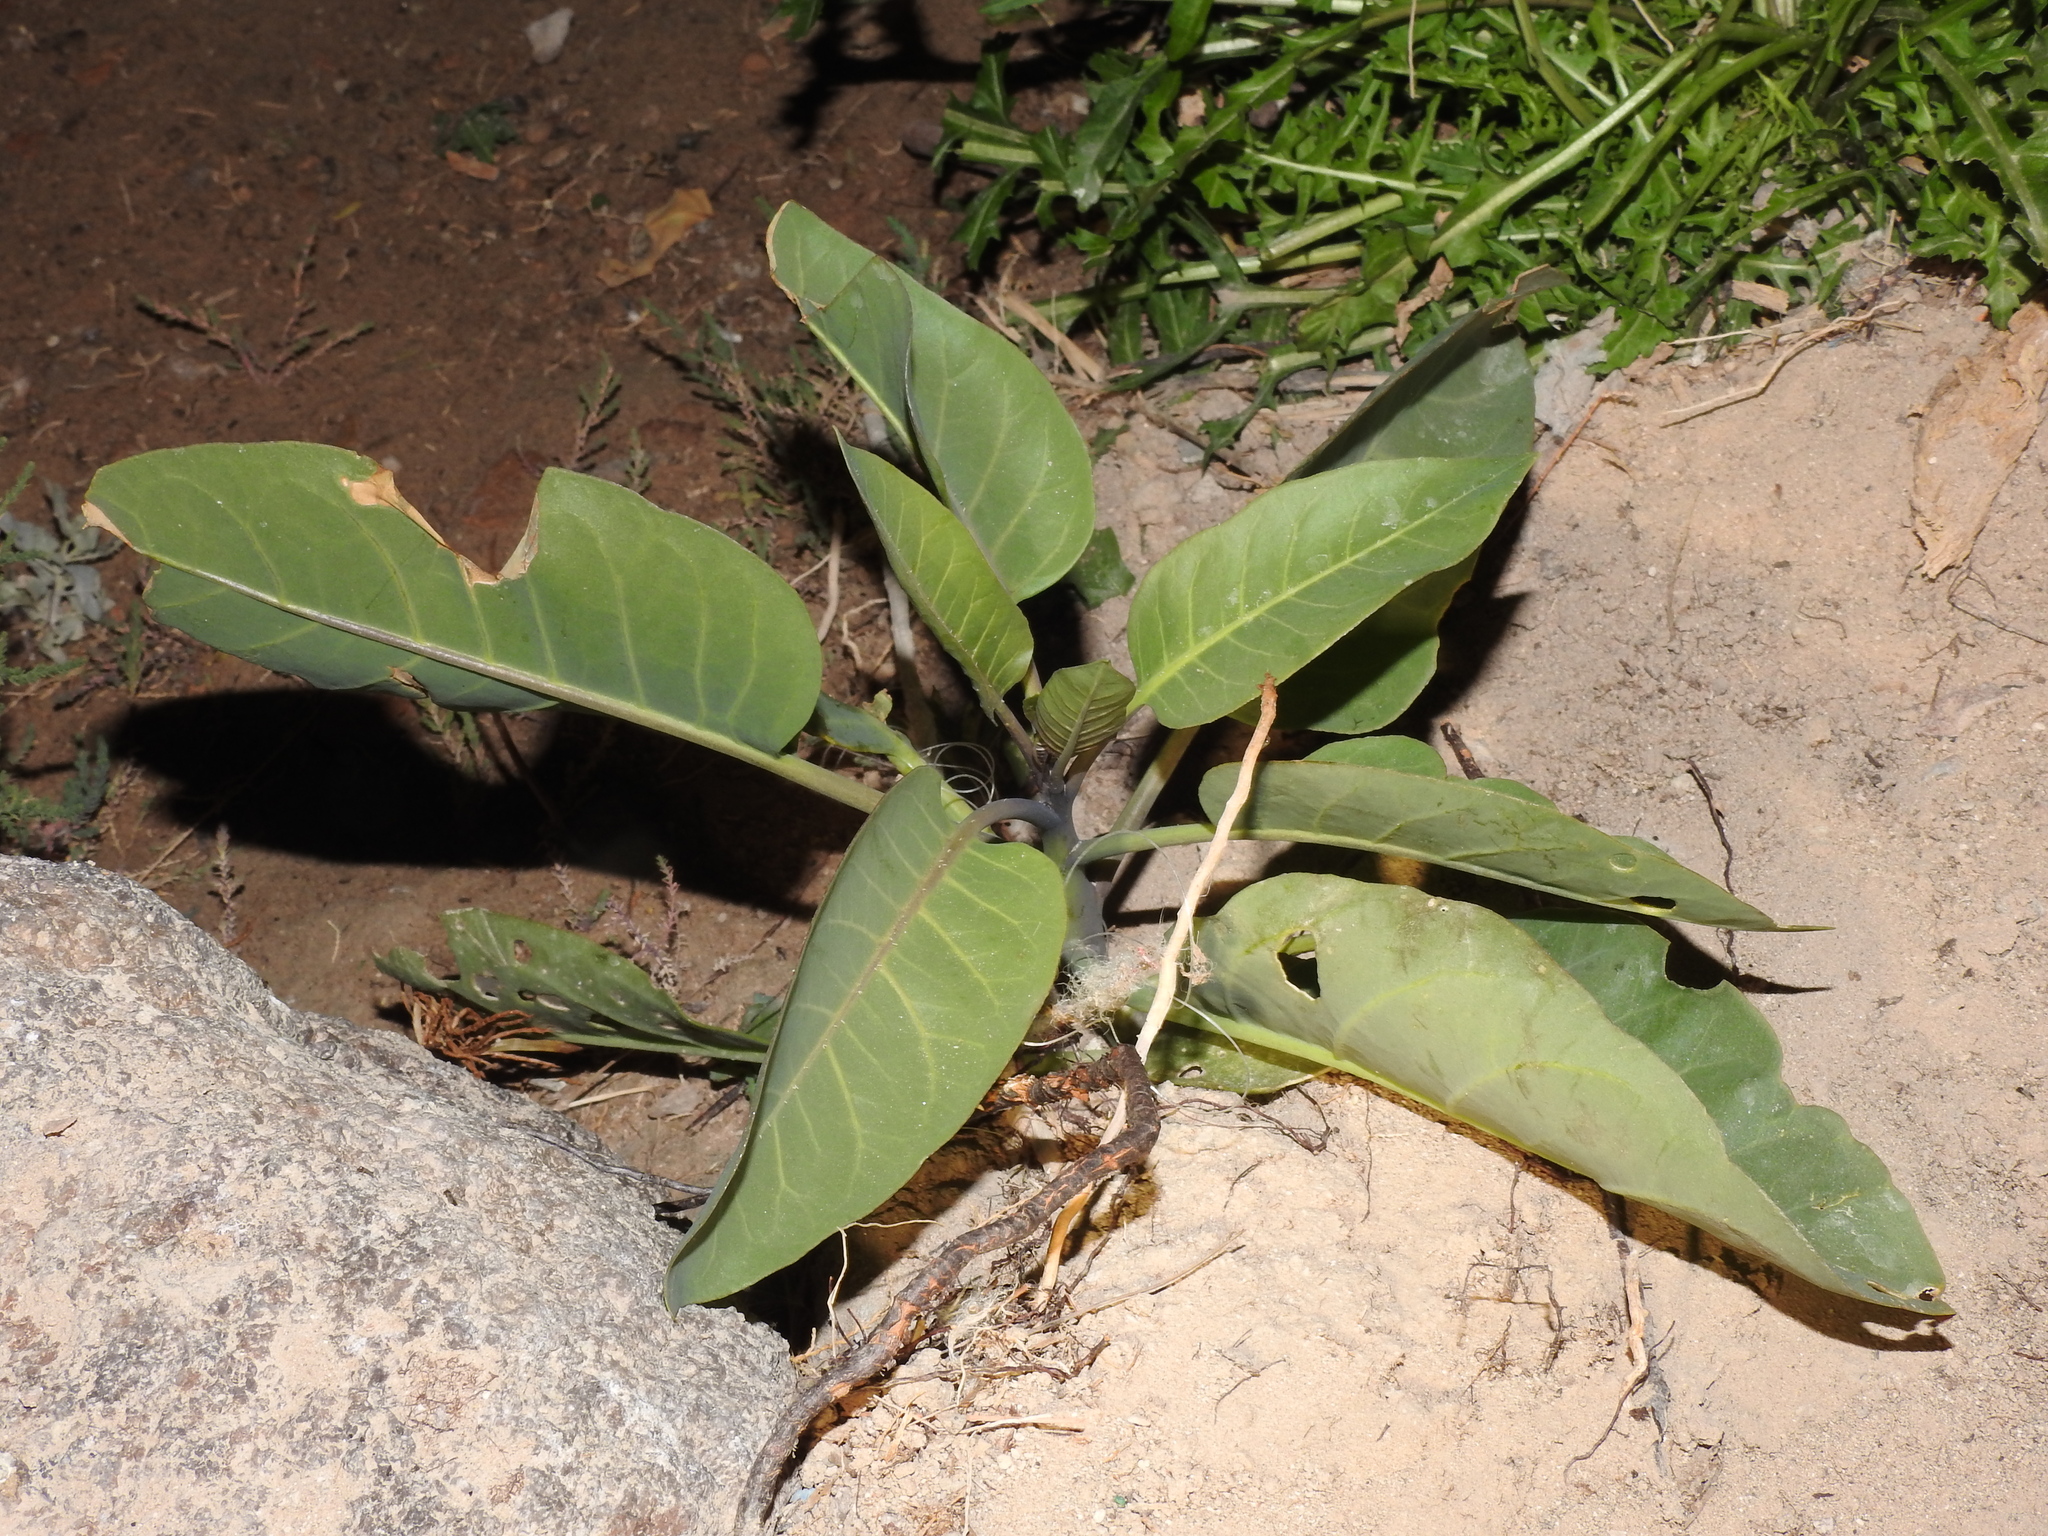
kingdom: Plantae
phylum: Tracheophyta
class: Magnoliopsida
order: Piperales
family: Saururaceae
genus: Anemopsis
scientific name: Anemopsis californica
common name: Apache-beads
